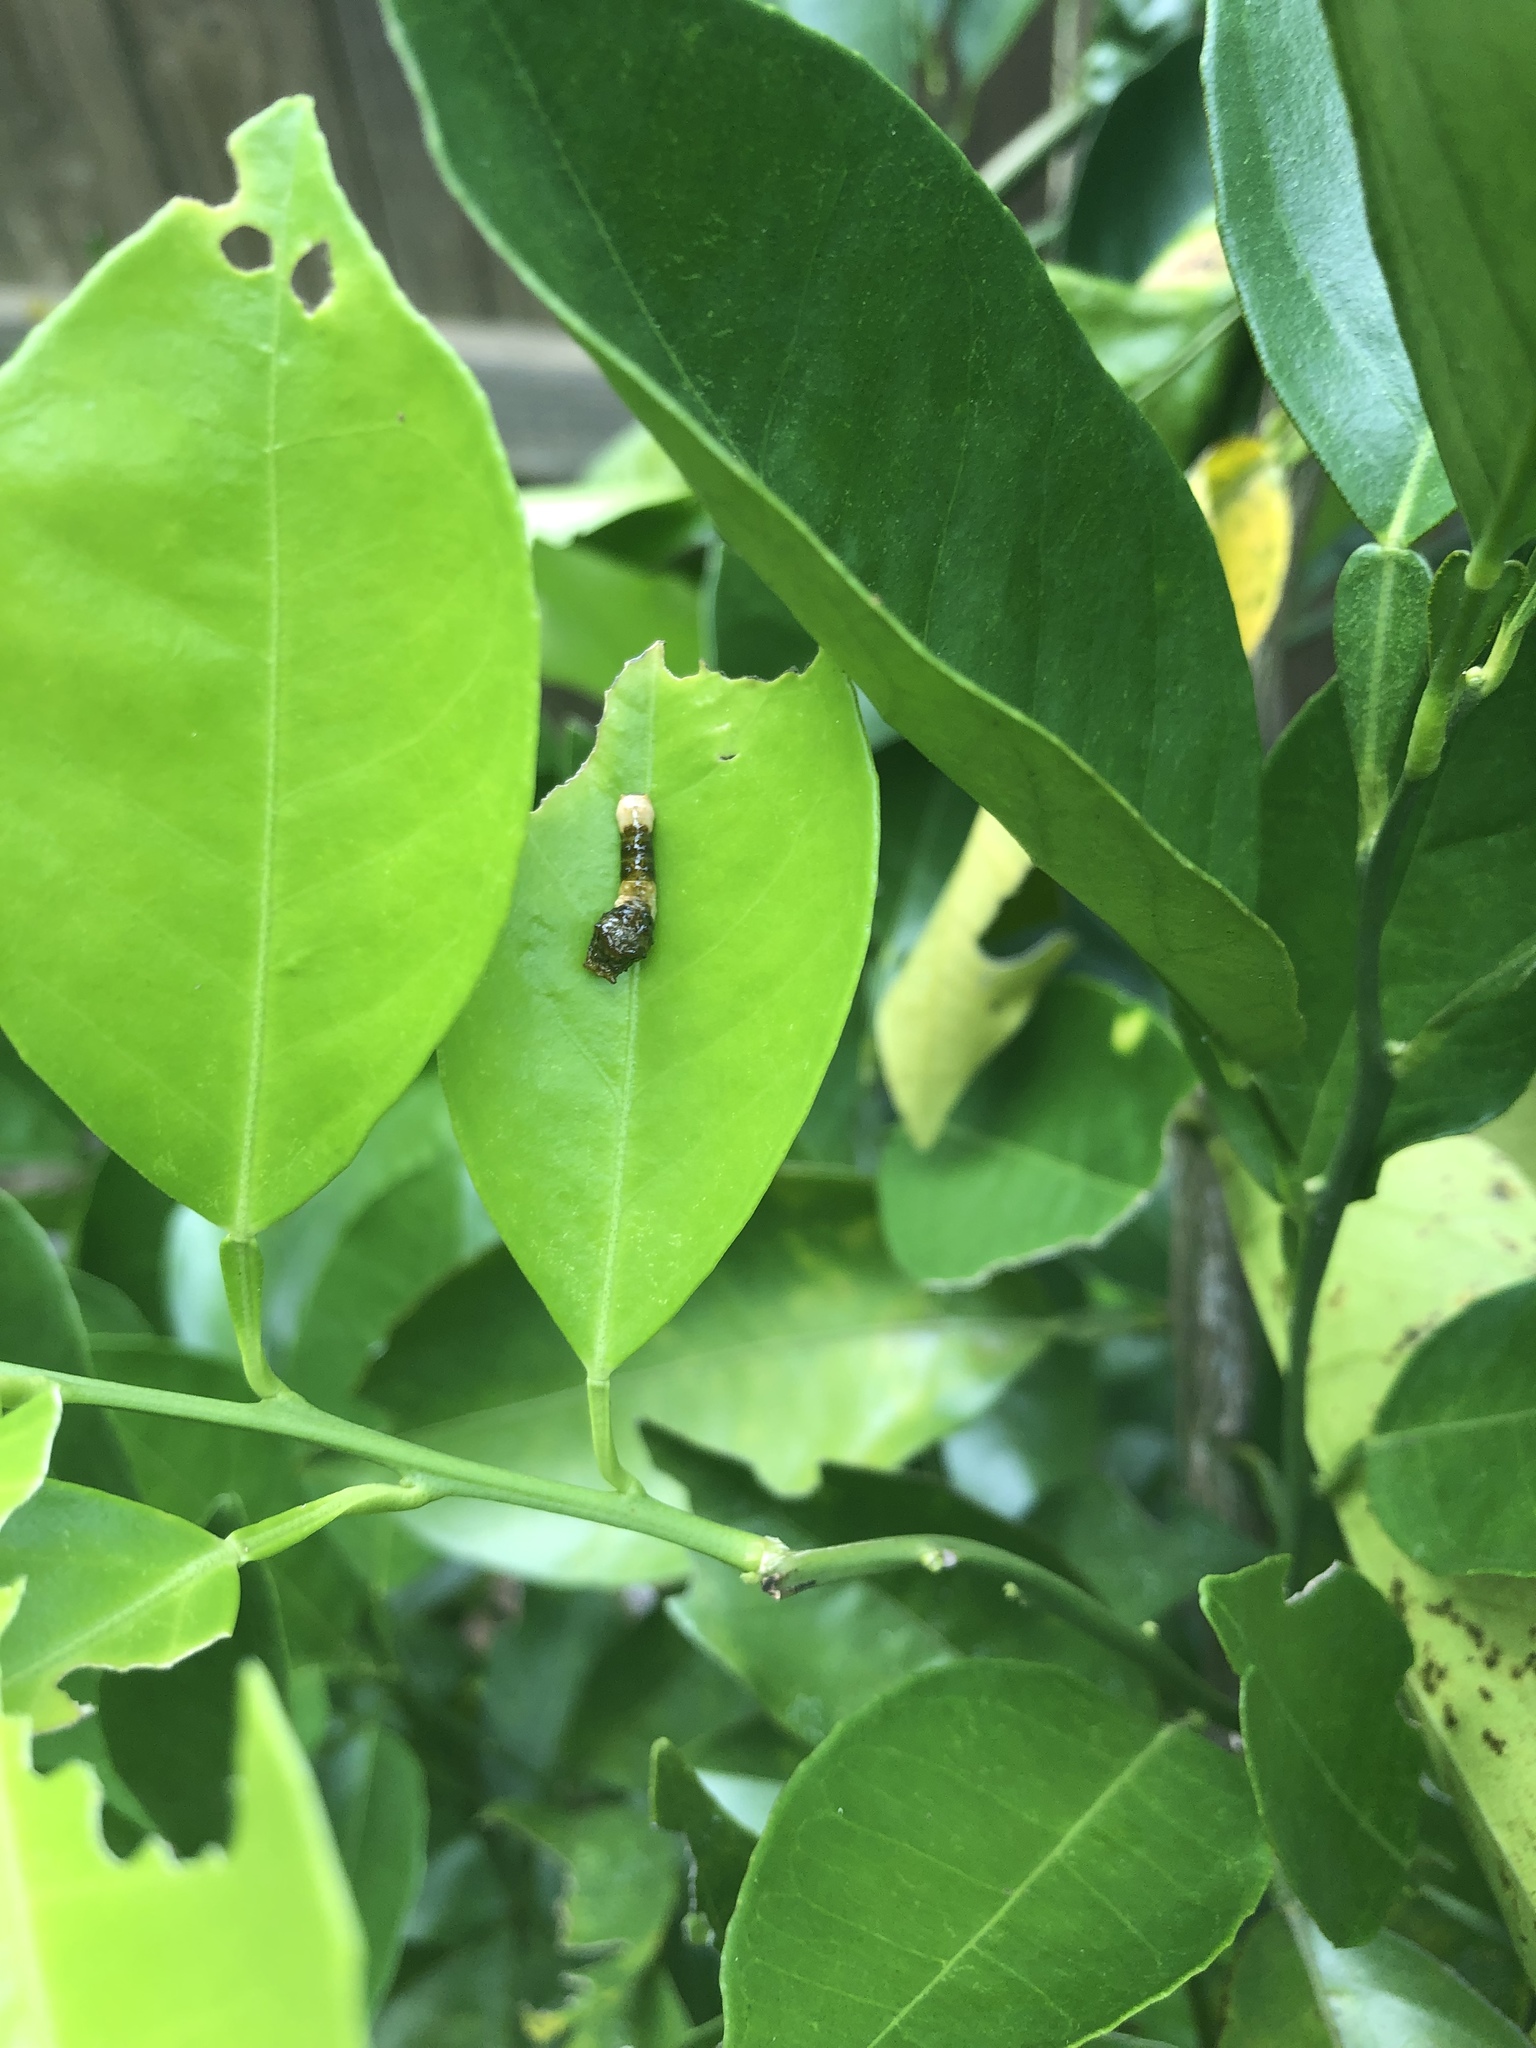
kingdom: Animalia
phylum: Arthropoda
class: Insecta
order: Lepidoptera
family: Papilionidae
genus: Papilio
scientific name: Papilio cresphontes
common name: Giant swallowtail
